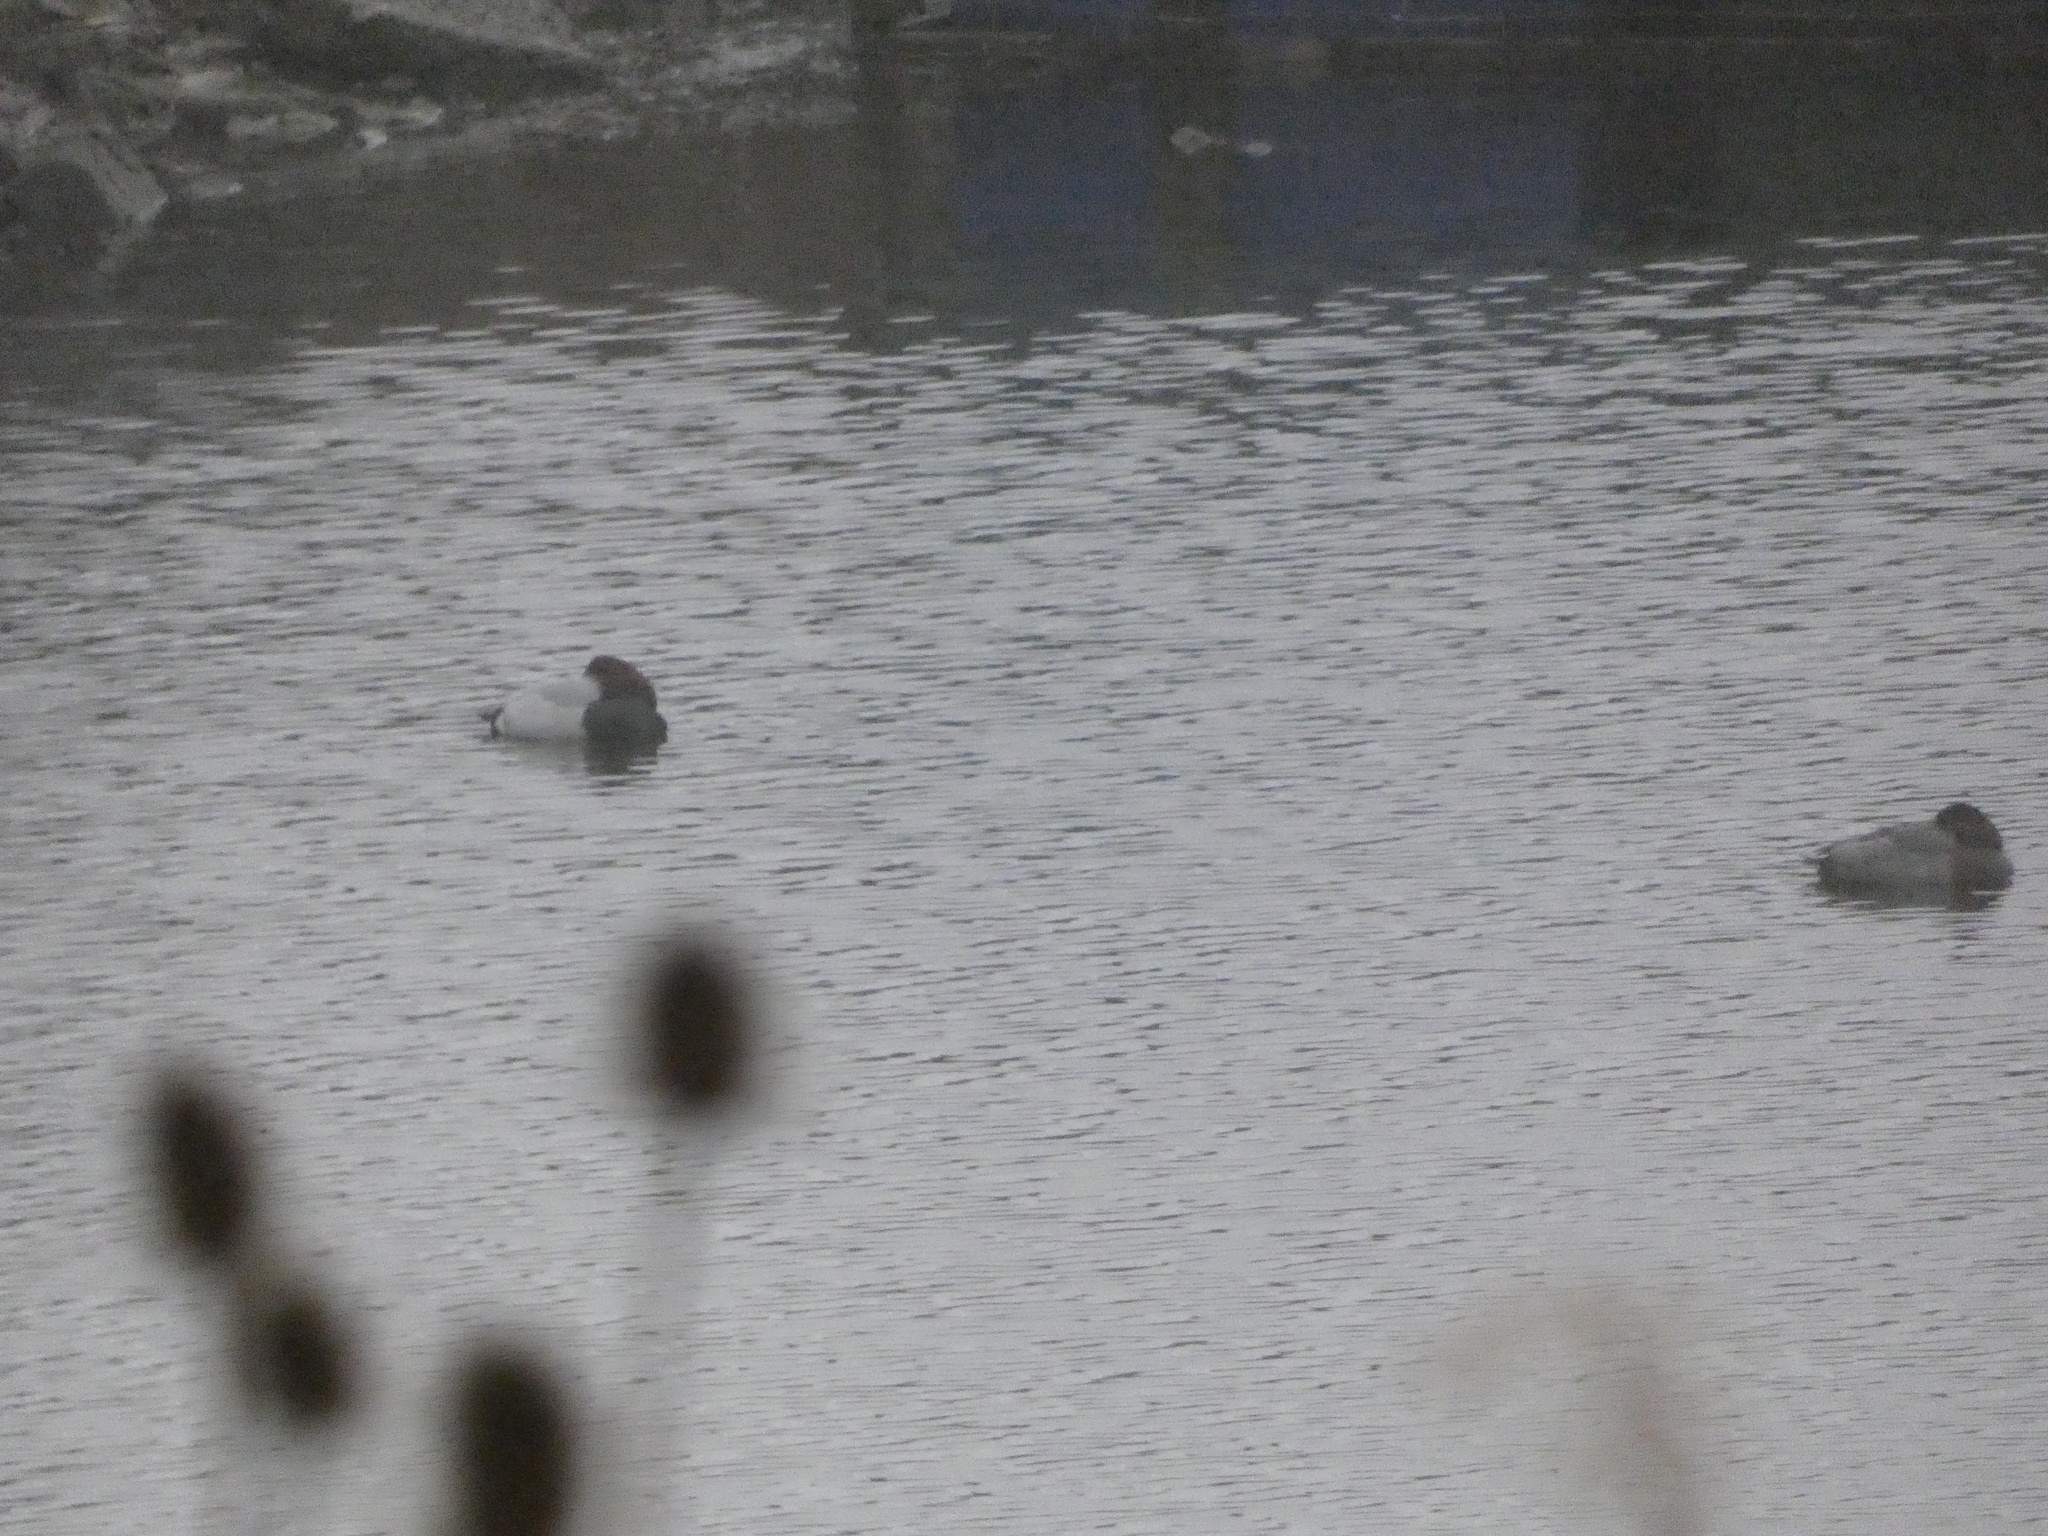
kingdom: Animalia
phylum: Chordata
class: Aves
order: Anseriformes
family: Anatidae
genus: Aythya
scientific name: Aythya ferina
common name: Common pochard
